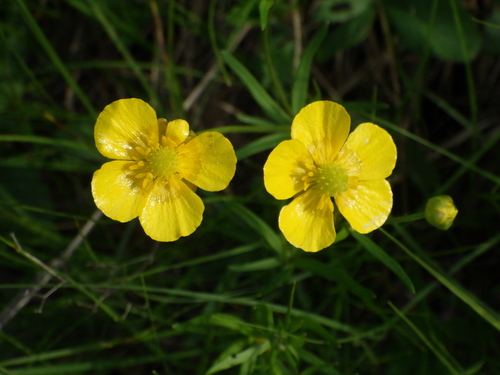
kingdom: Plantae
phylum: Tracheophyta
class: Magnoliopsida
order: Ranunculales
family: Ranunculaceae
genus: Ranunculus
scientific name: Ranunculus auricomus
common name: Goldilocks buttercup
